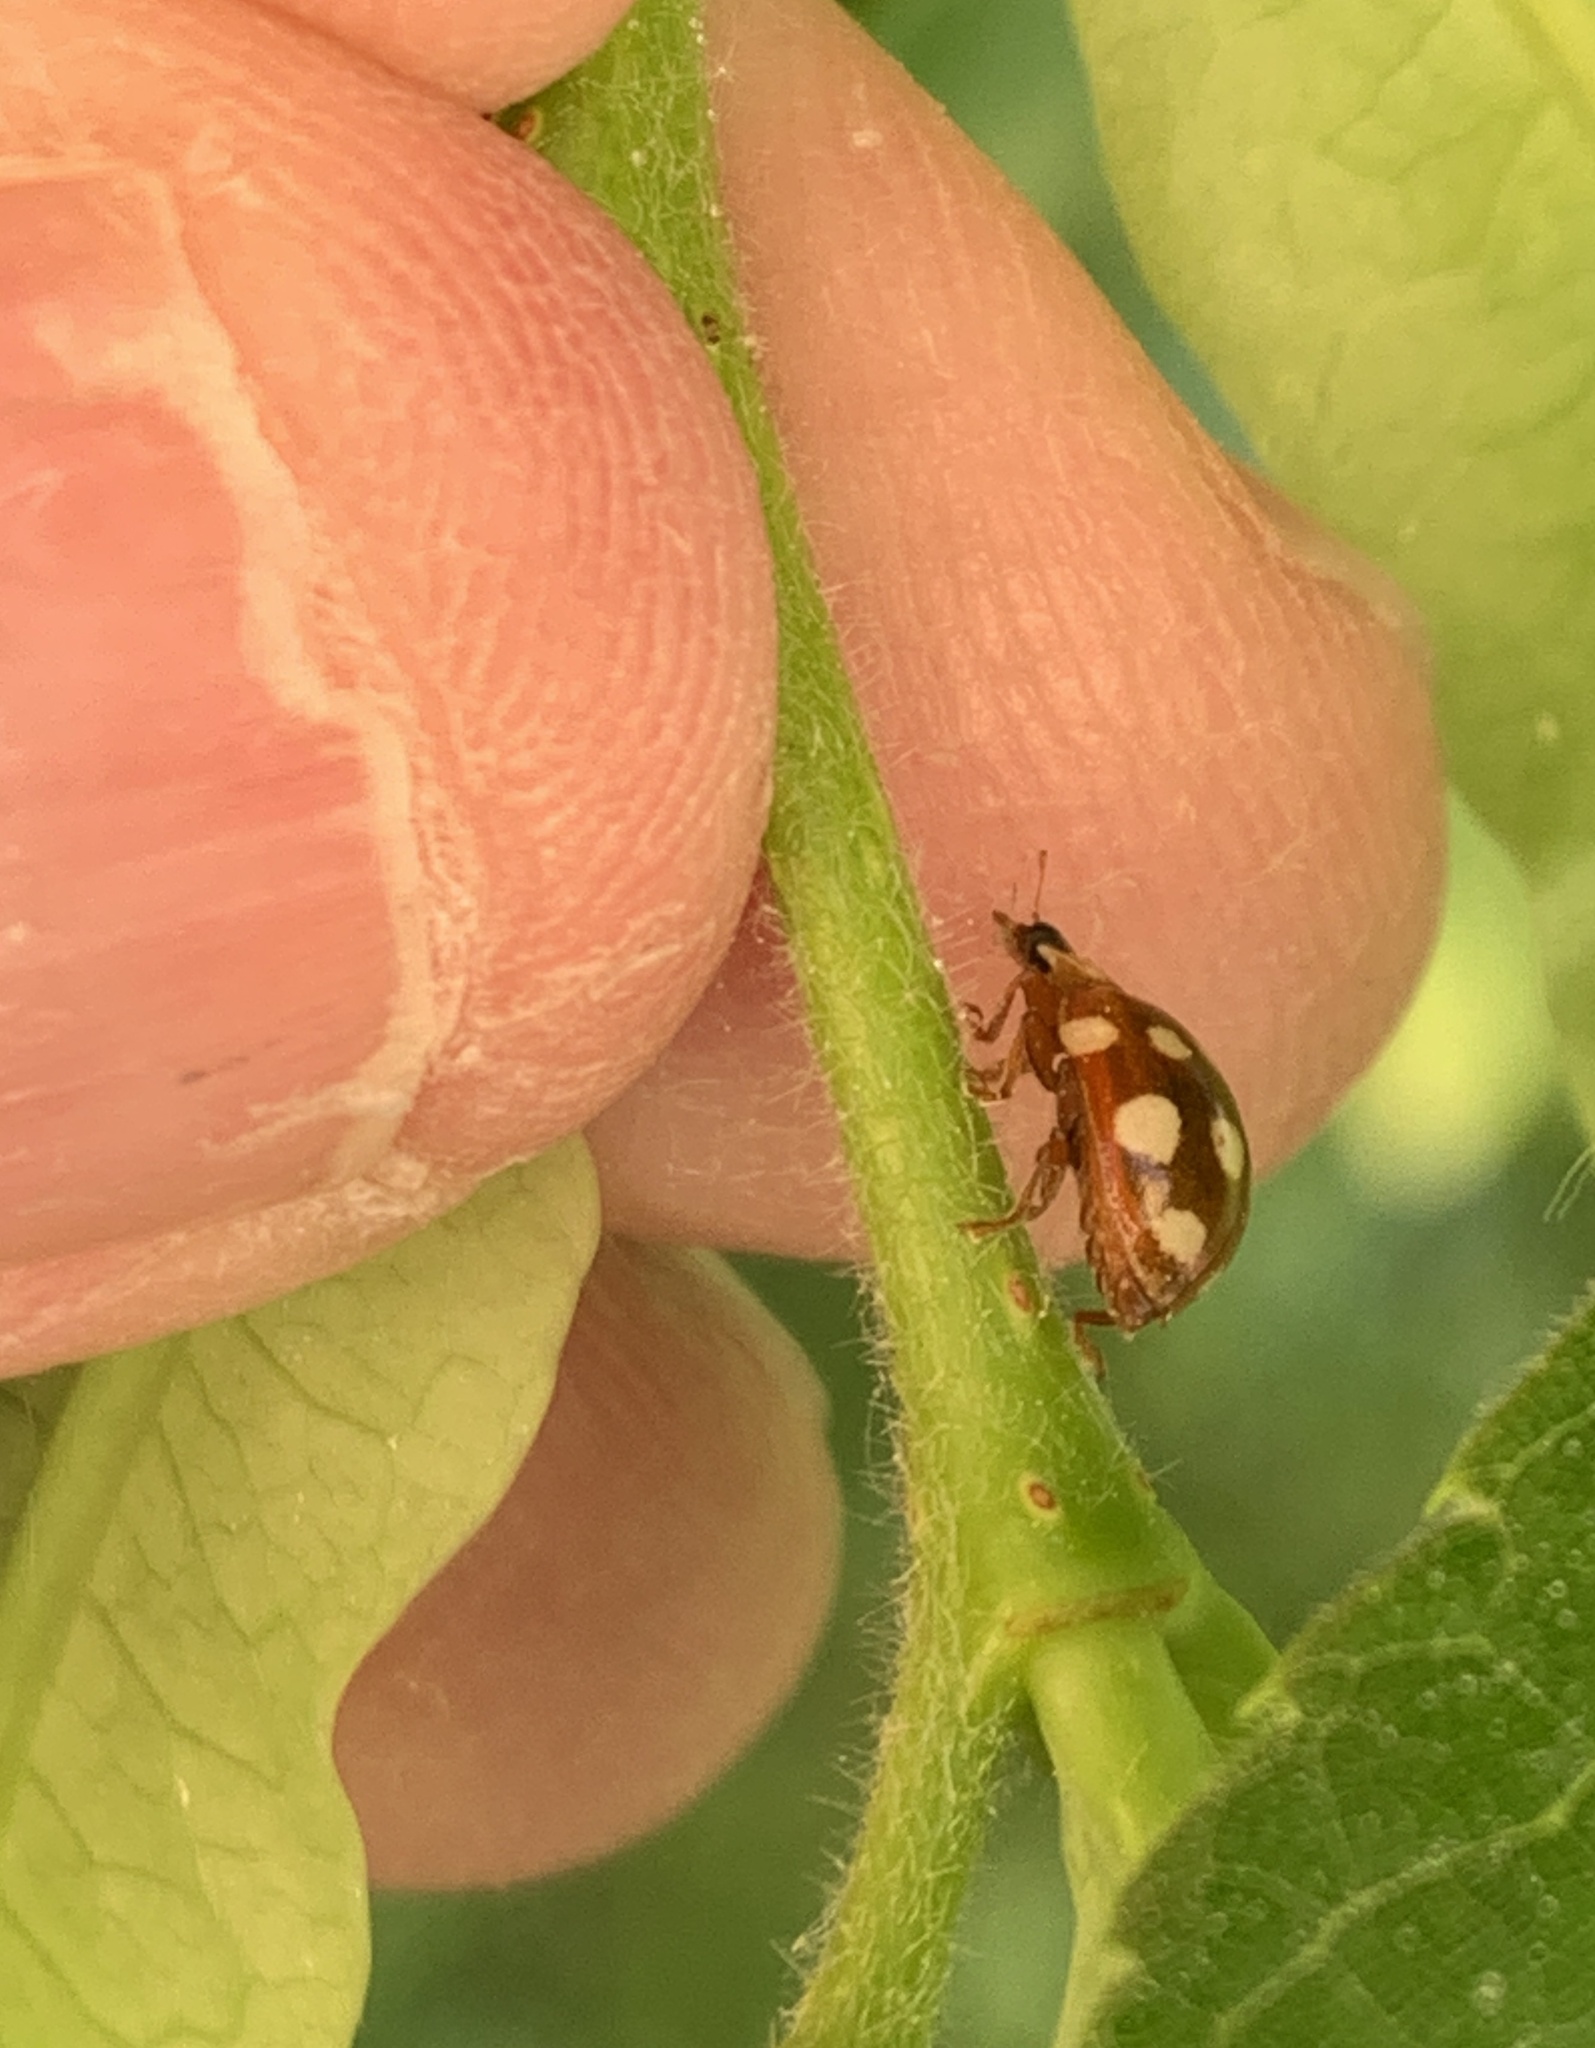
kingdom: Animalia
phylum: Arthropoda
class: Insecta
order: Coleoptera
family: Coccinellidae
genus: Calvia
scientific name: Calvia quatuordecimguttata
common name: Cream-spot ladybird
